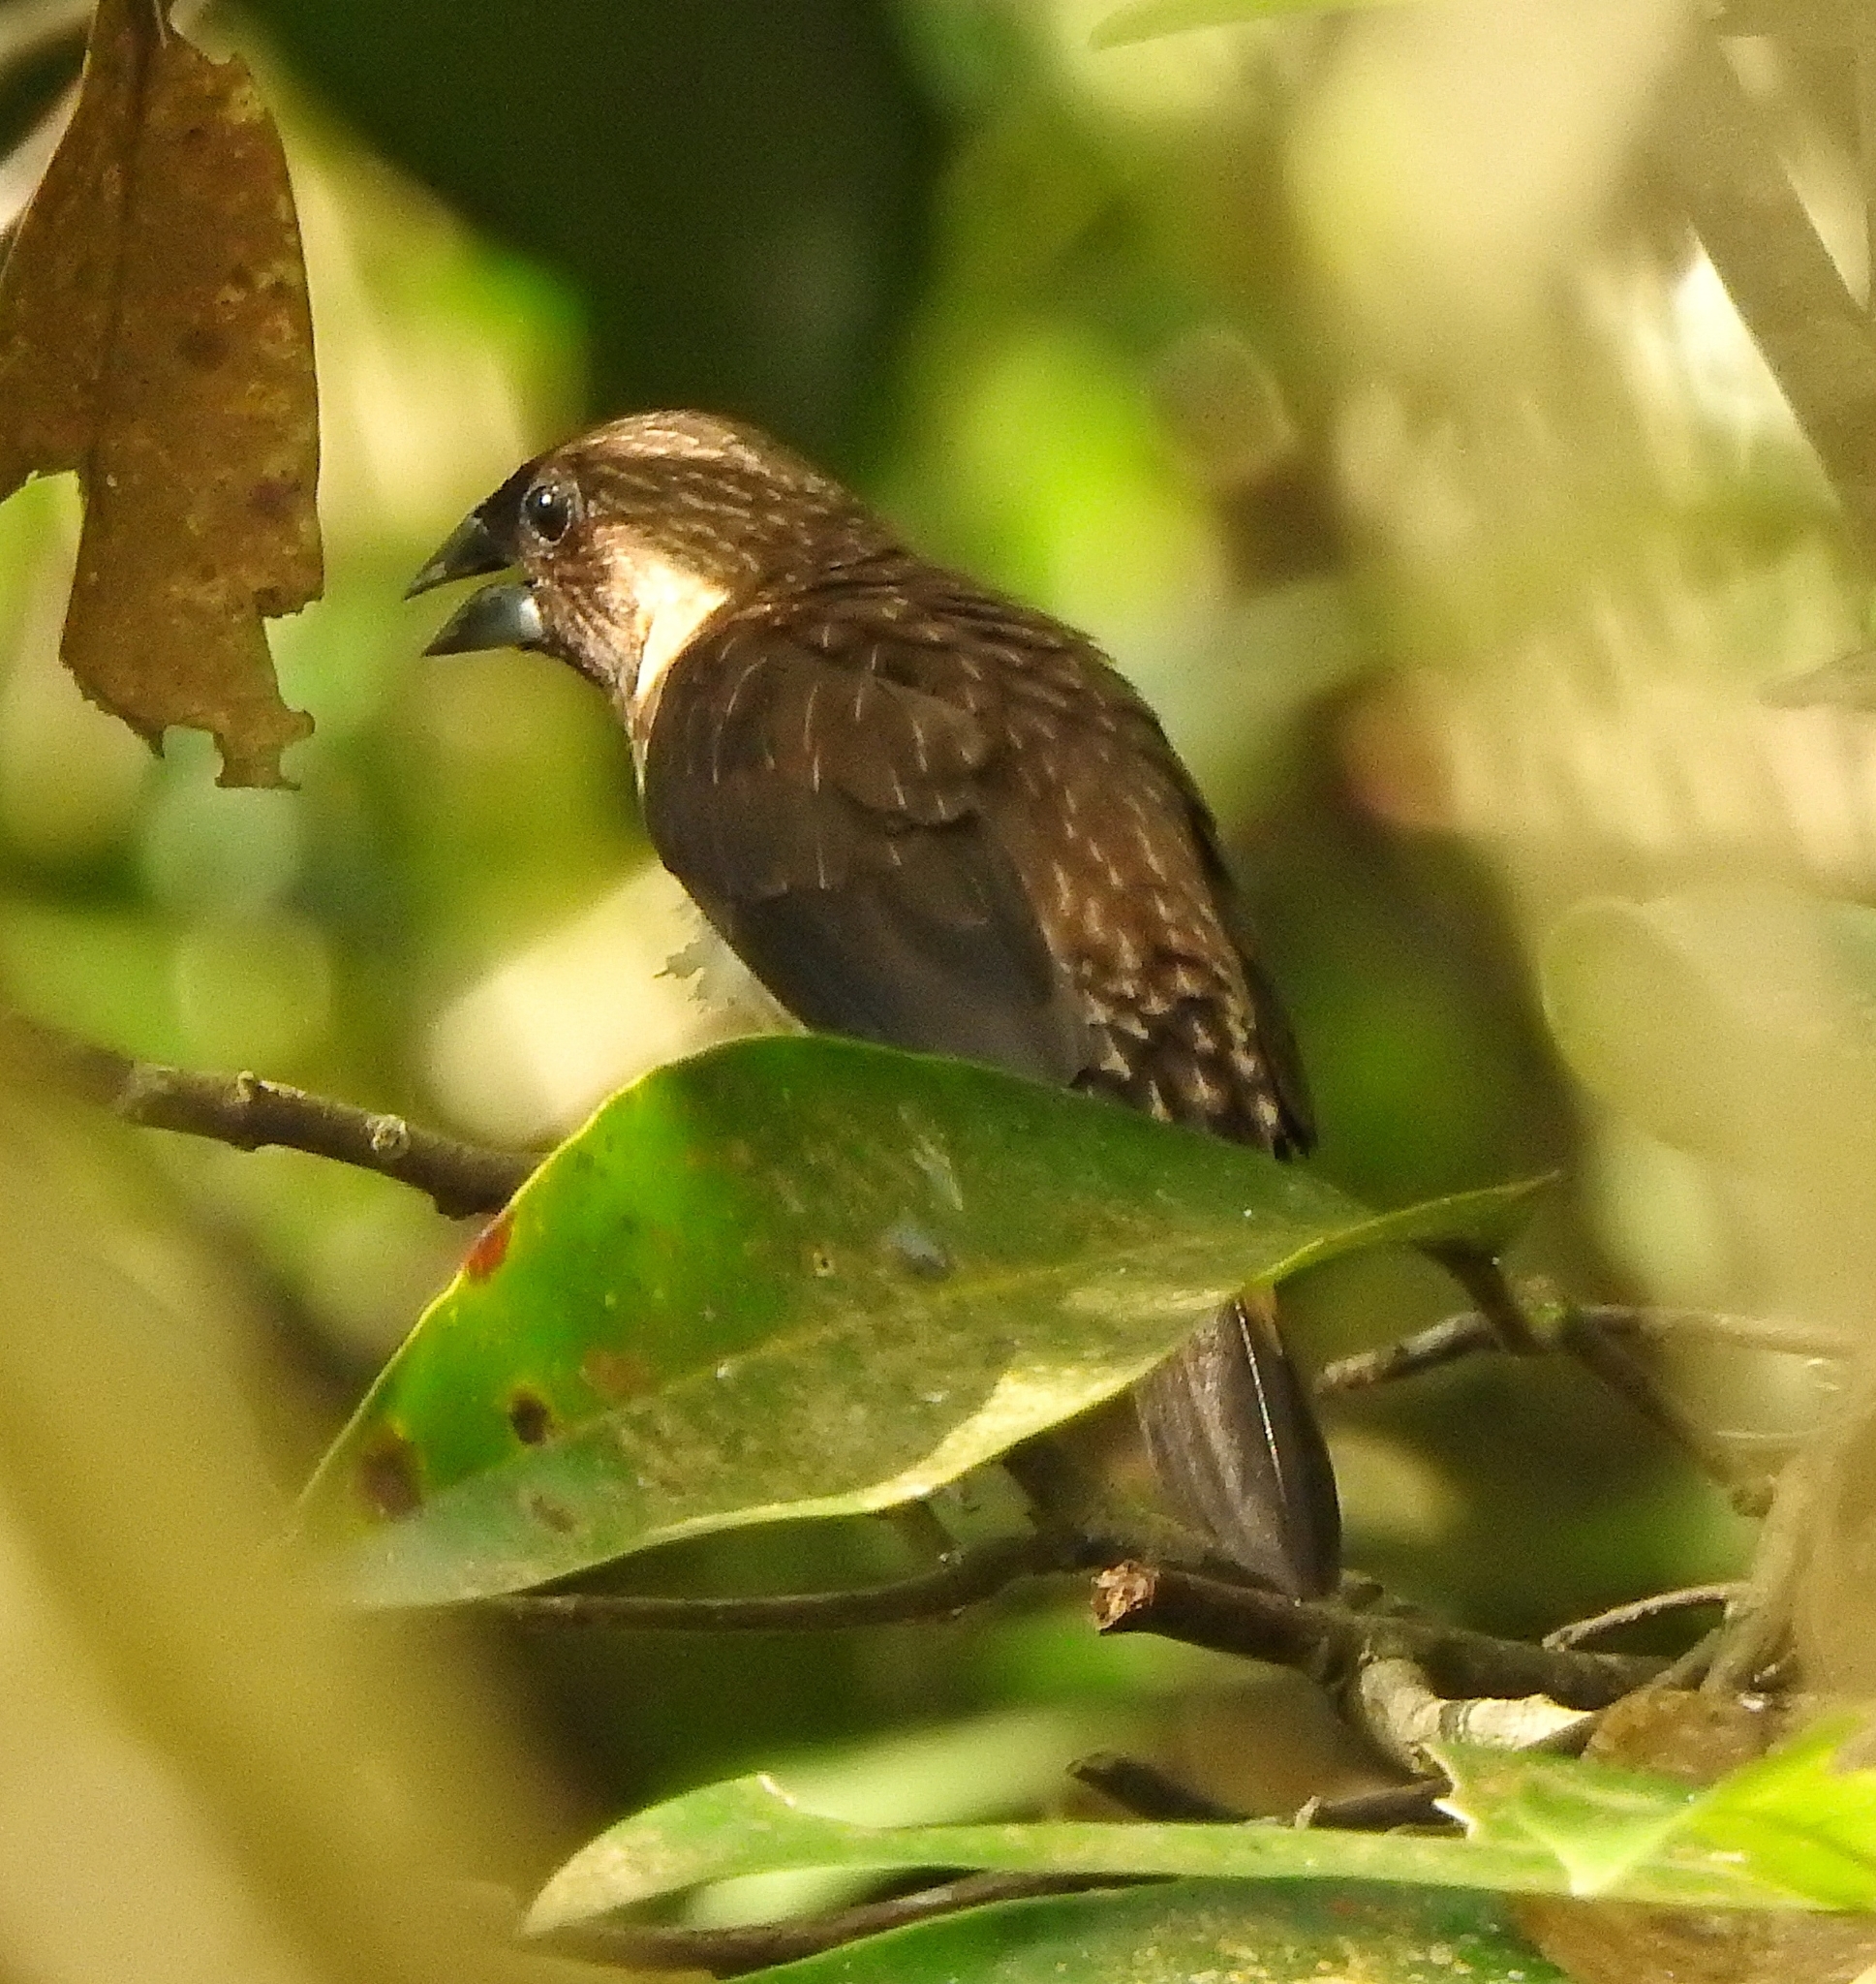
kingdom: Animalia
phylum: Chordata
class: Aves
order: Passeriformes
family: Estrildidae
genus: Lonchura
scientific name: Lonchura kelaarti
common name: Black-throated munia
